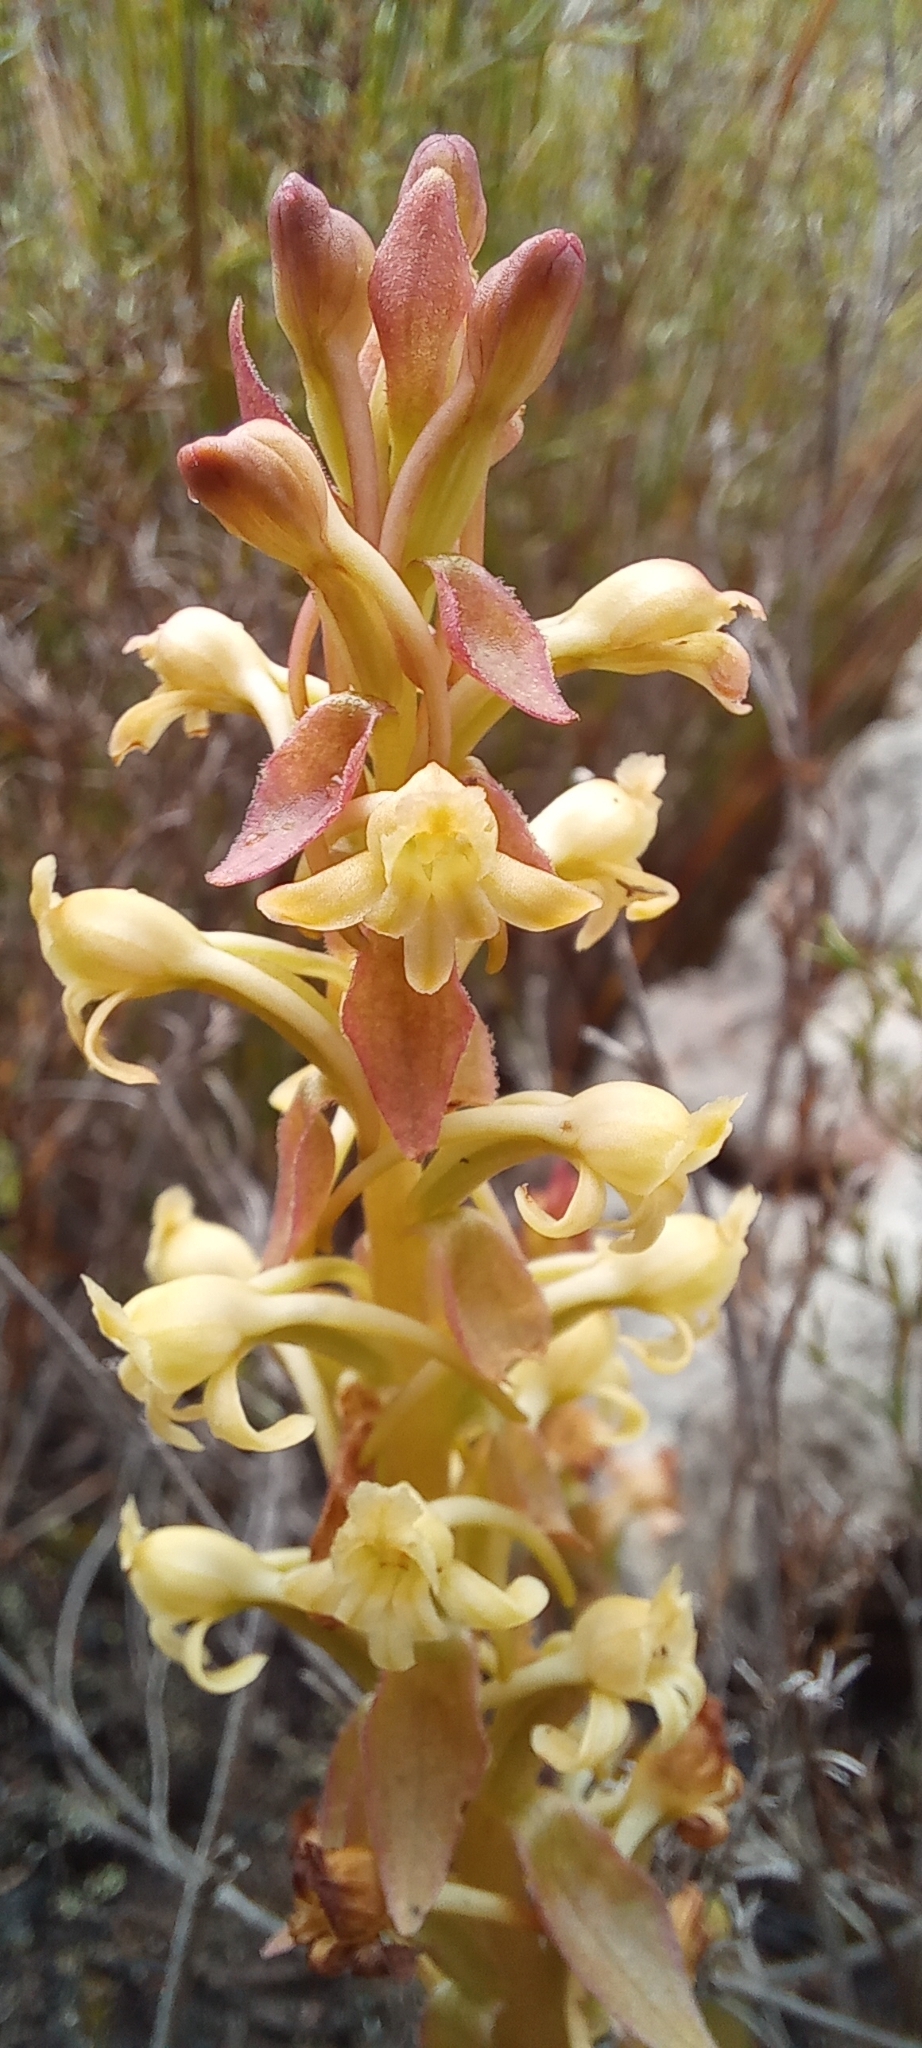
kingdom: Plantae
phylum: Tracheophyta
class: Liliopsida
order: Asparagales
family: Orchidaceae
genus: Satyrium
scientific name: Satyrium humile
